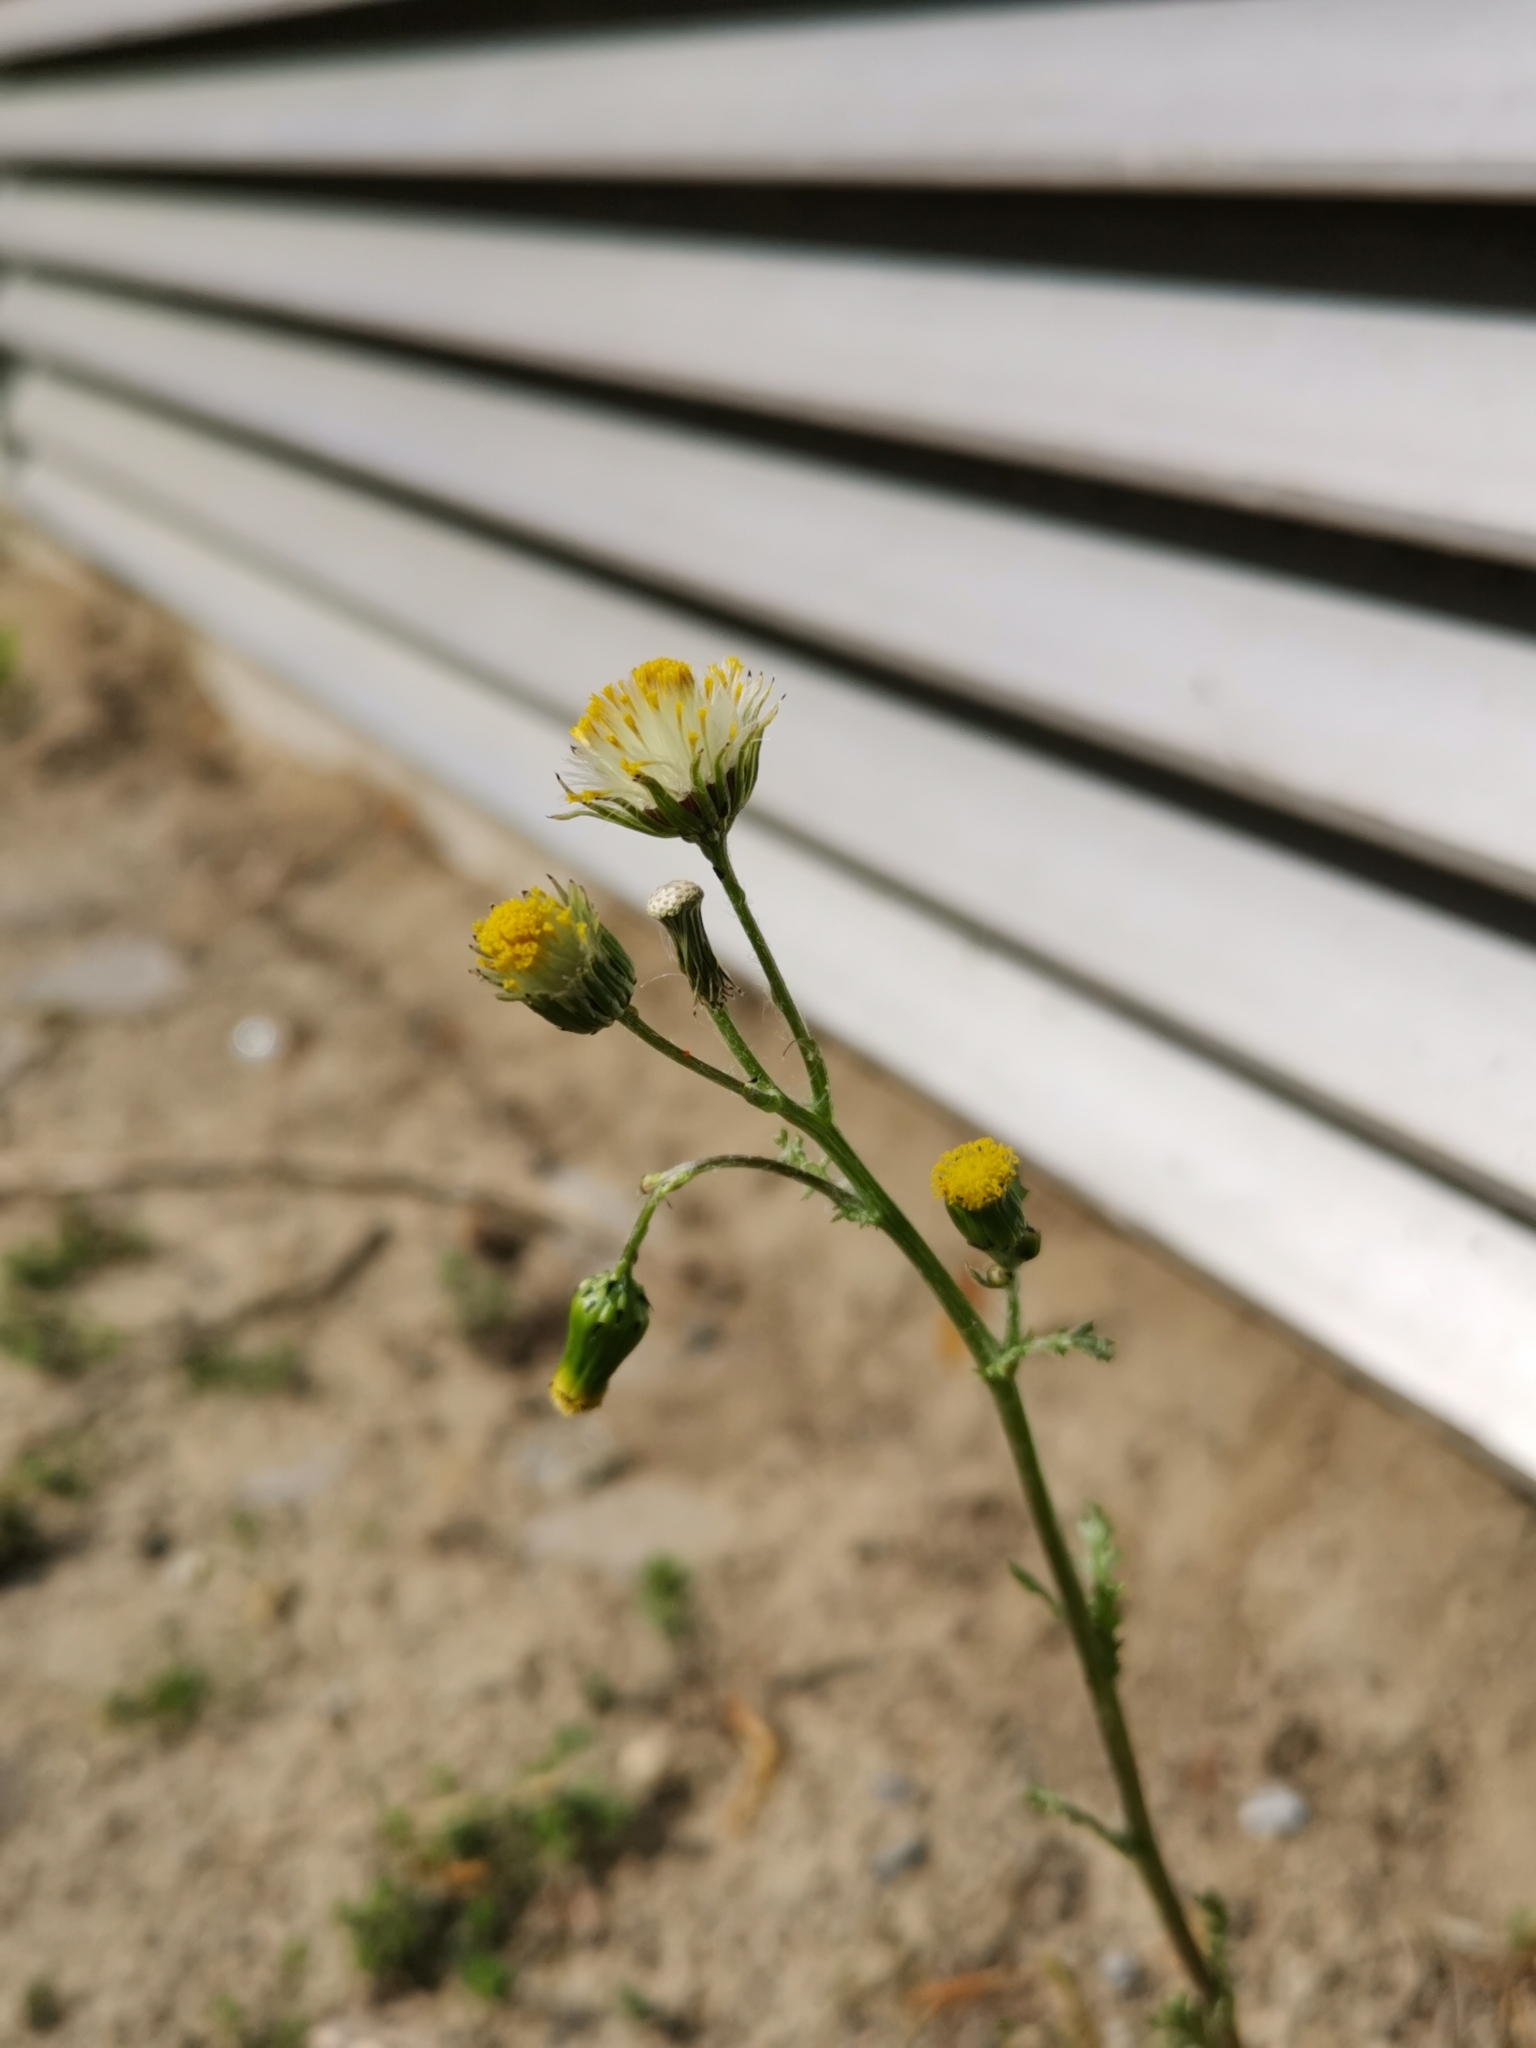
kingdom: Plantae
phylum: Tracheophyta
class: Magnoliopsida
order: Asterales
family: Asteraceae
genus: Senecio
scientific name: Senecio vulgaris
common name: Old-man-in-the-spring
